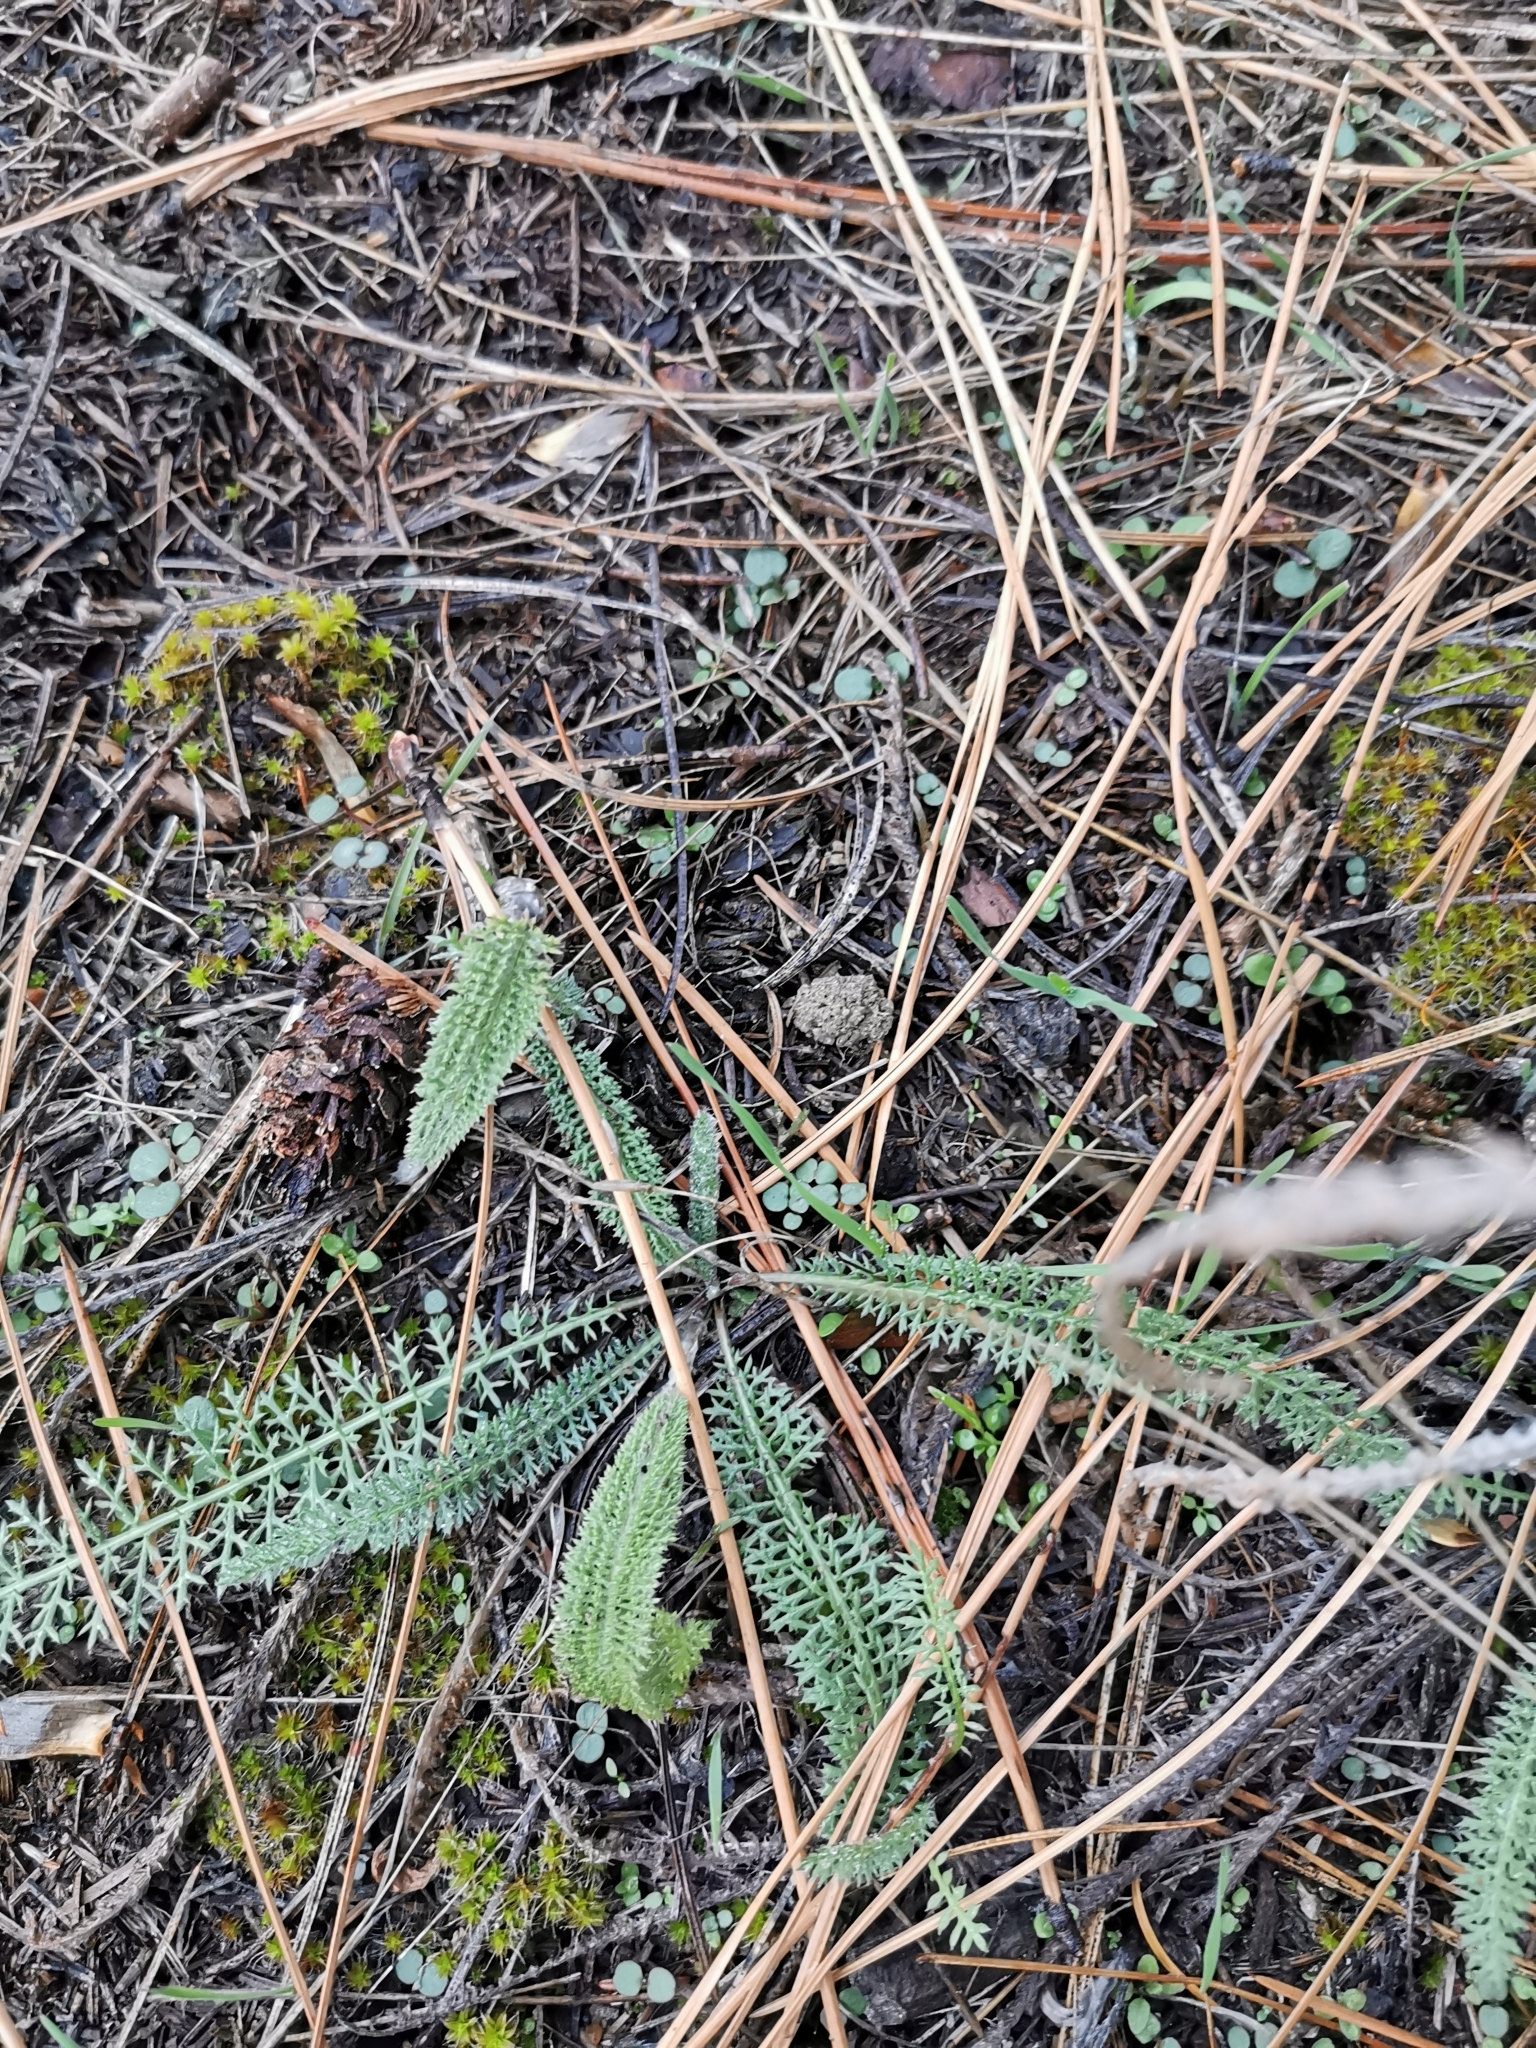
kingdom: Plantae
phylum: Tracheophyta
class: Magnoliopsida
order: Asterales
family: Asteraceae
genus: Achillea
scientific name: Achillea millefolium
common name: Yarrow
